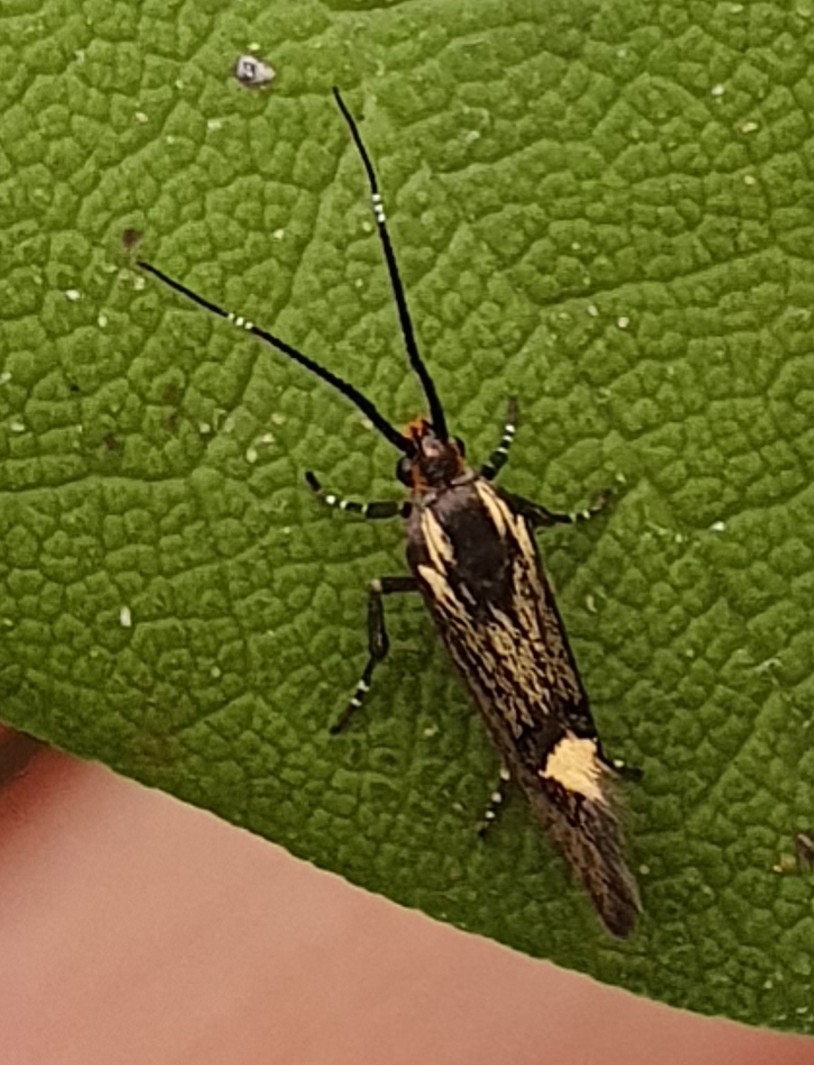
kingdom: Animalia
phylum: Arthropoda
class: Insecta
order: Lepidoptera
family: Oecophoridae
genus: Dafa
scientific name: Dafa Esperia sulphurella
